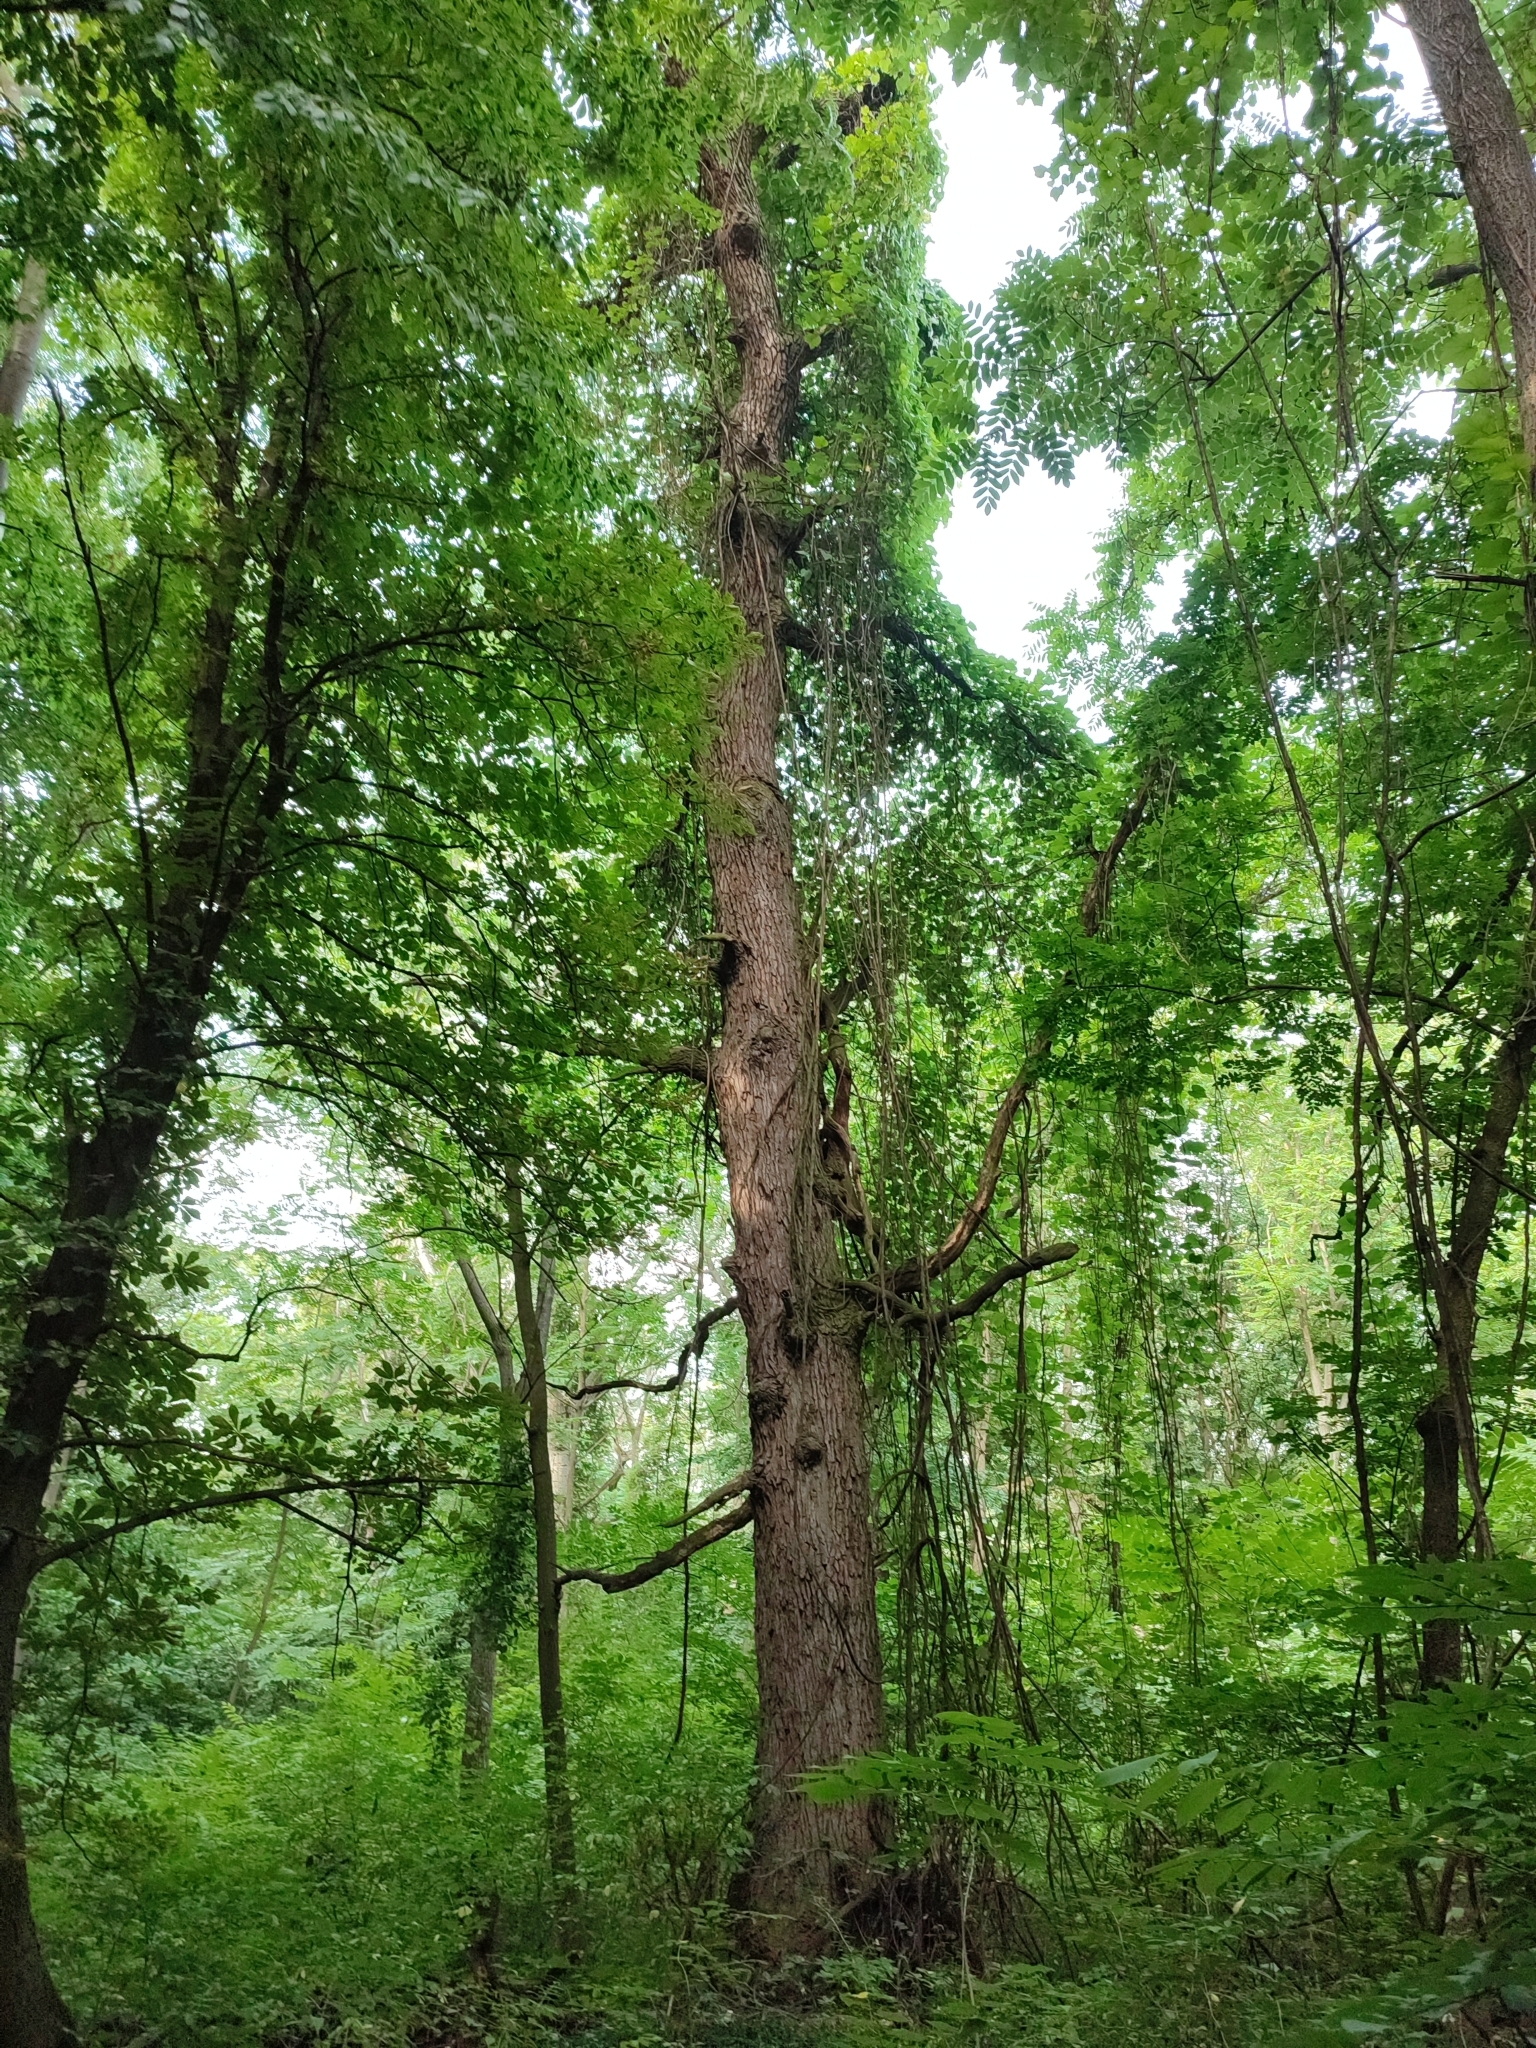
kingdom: Plantae
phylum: Tracheophyta
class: Magnoliopsida
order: Fagales
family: Fagaceae
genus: Quercus
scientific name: Quercus robur
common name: Pedunculate oak
